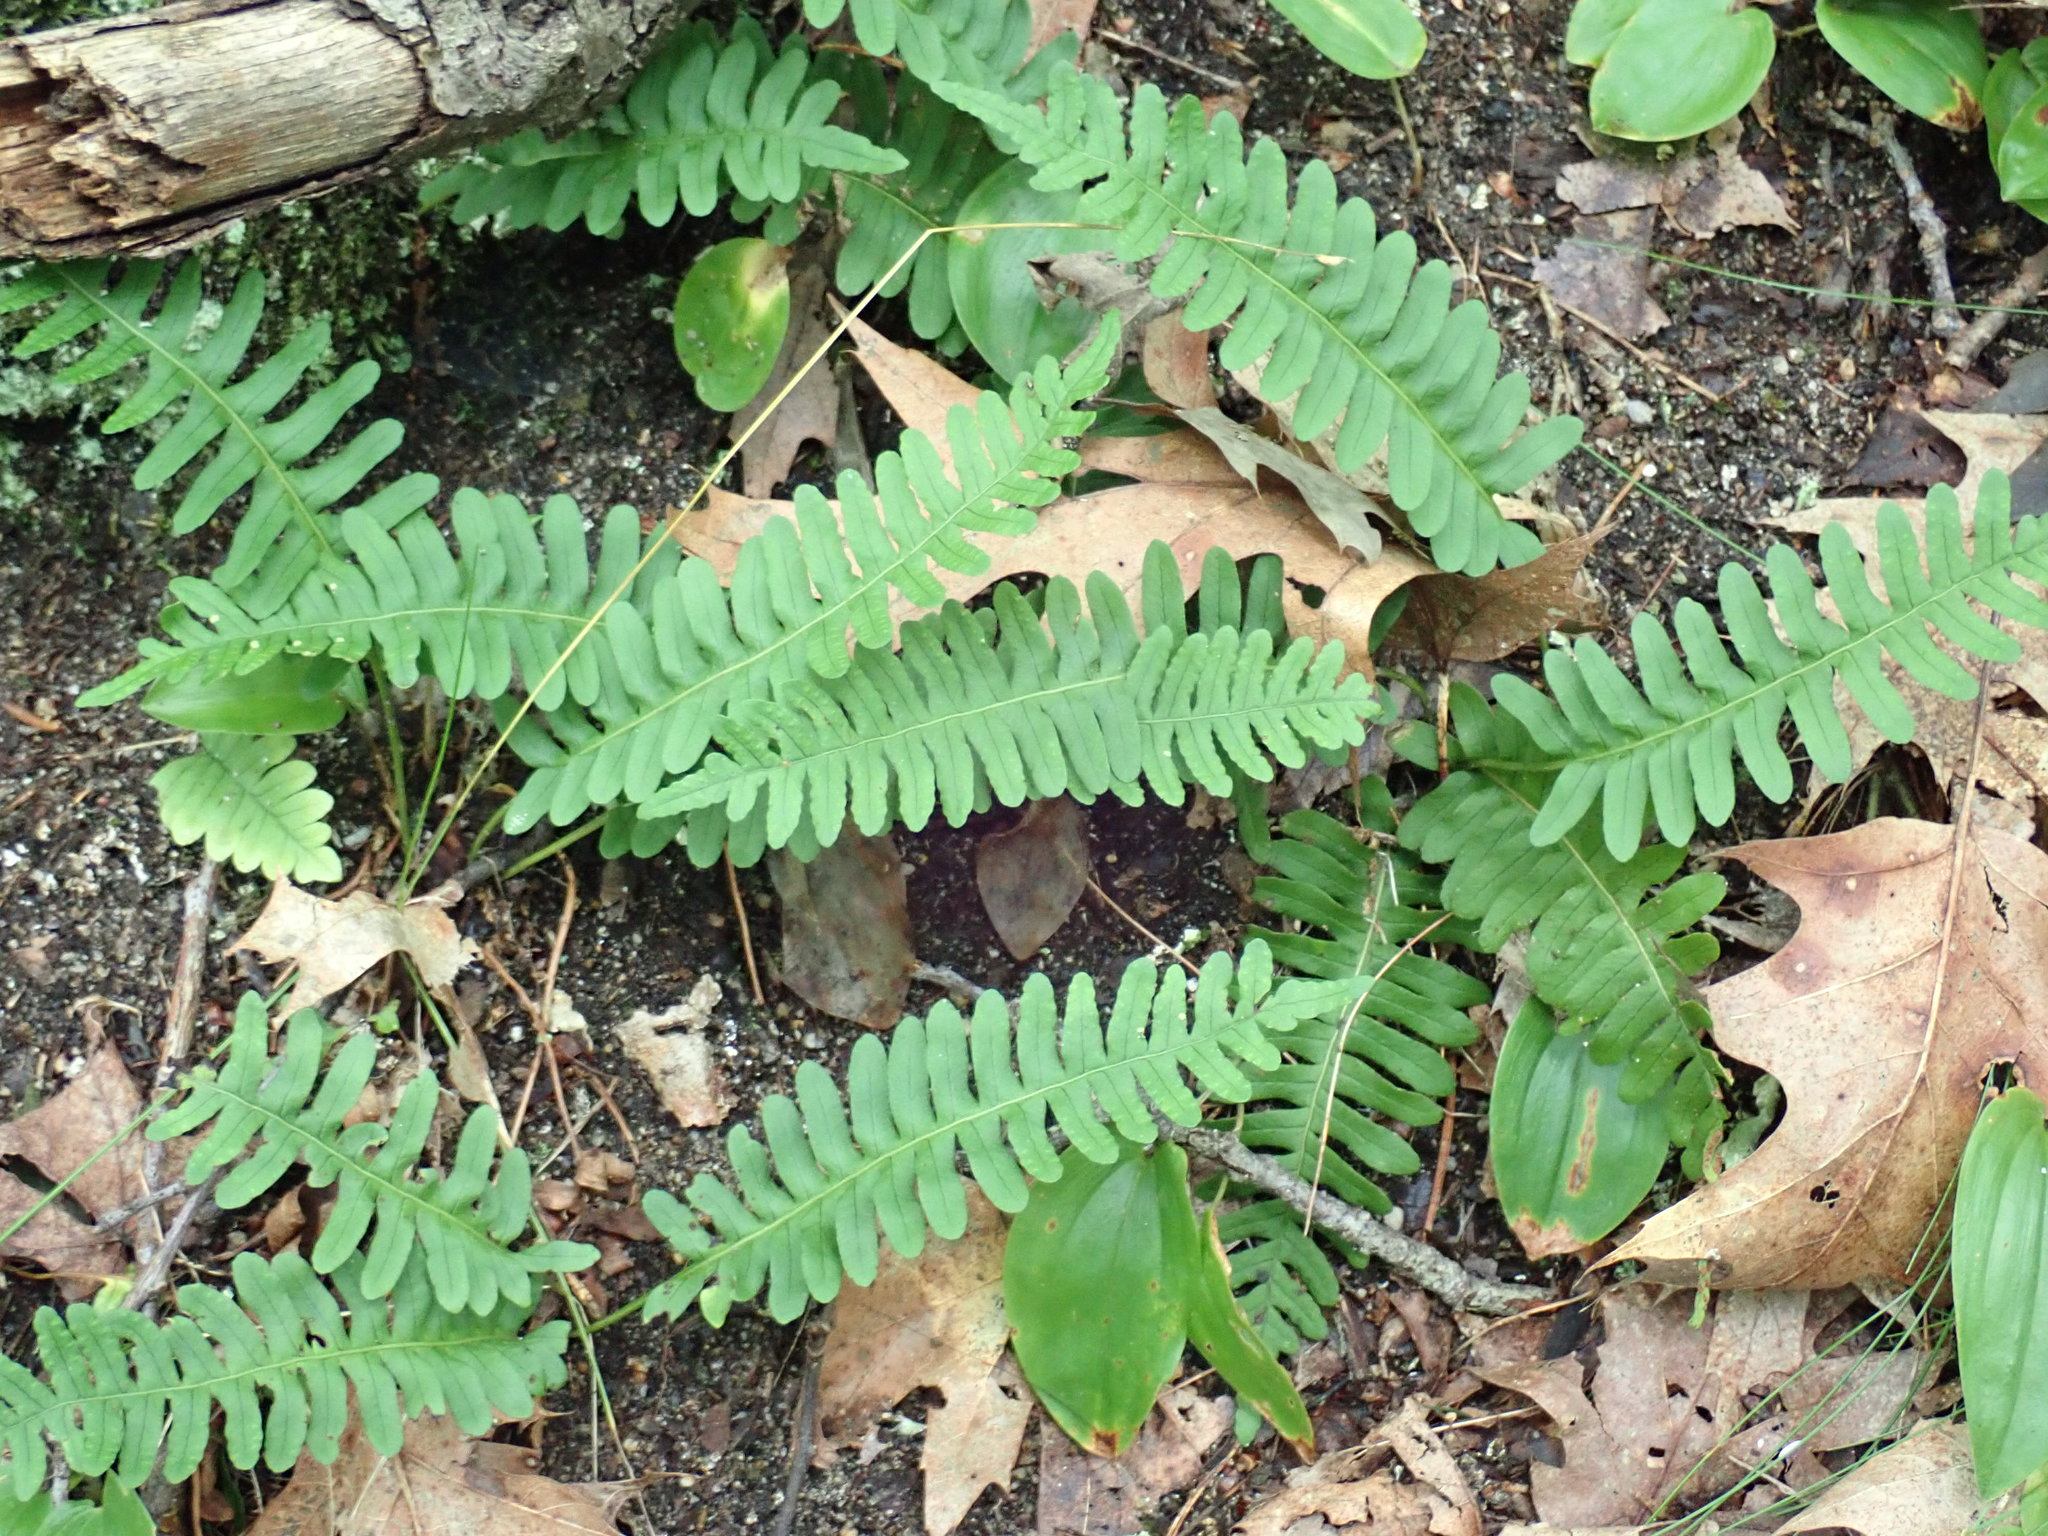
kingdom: Plantae
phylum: Tracheophyta
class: Polypodiopsida
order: Polypodiales
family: Polypodiaceae
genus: Polypodium
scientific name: Polypodium virginianum
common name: American wall fern
